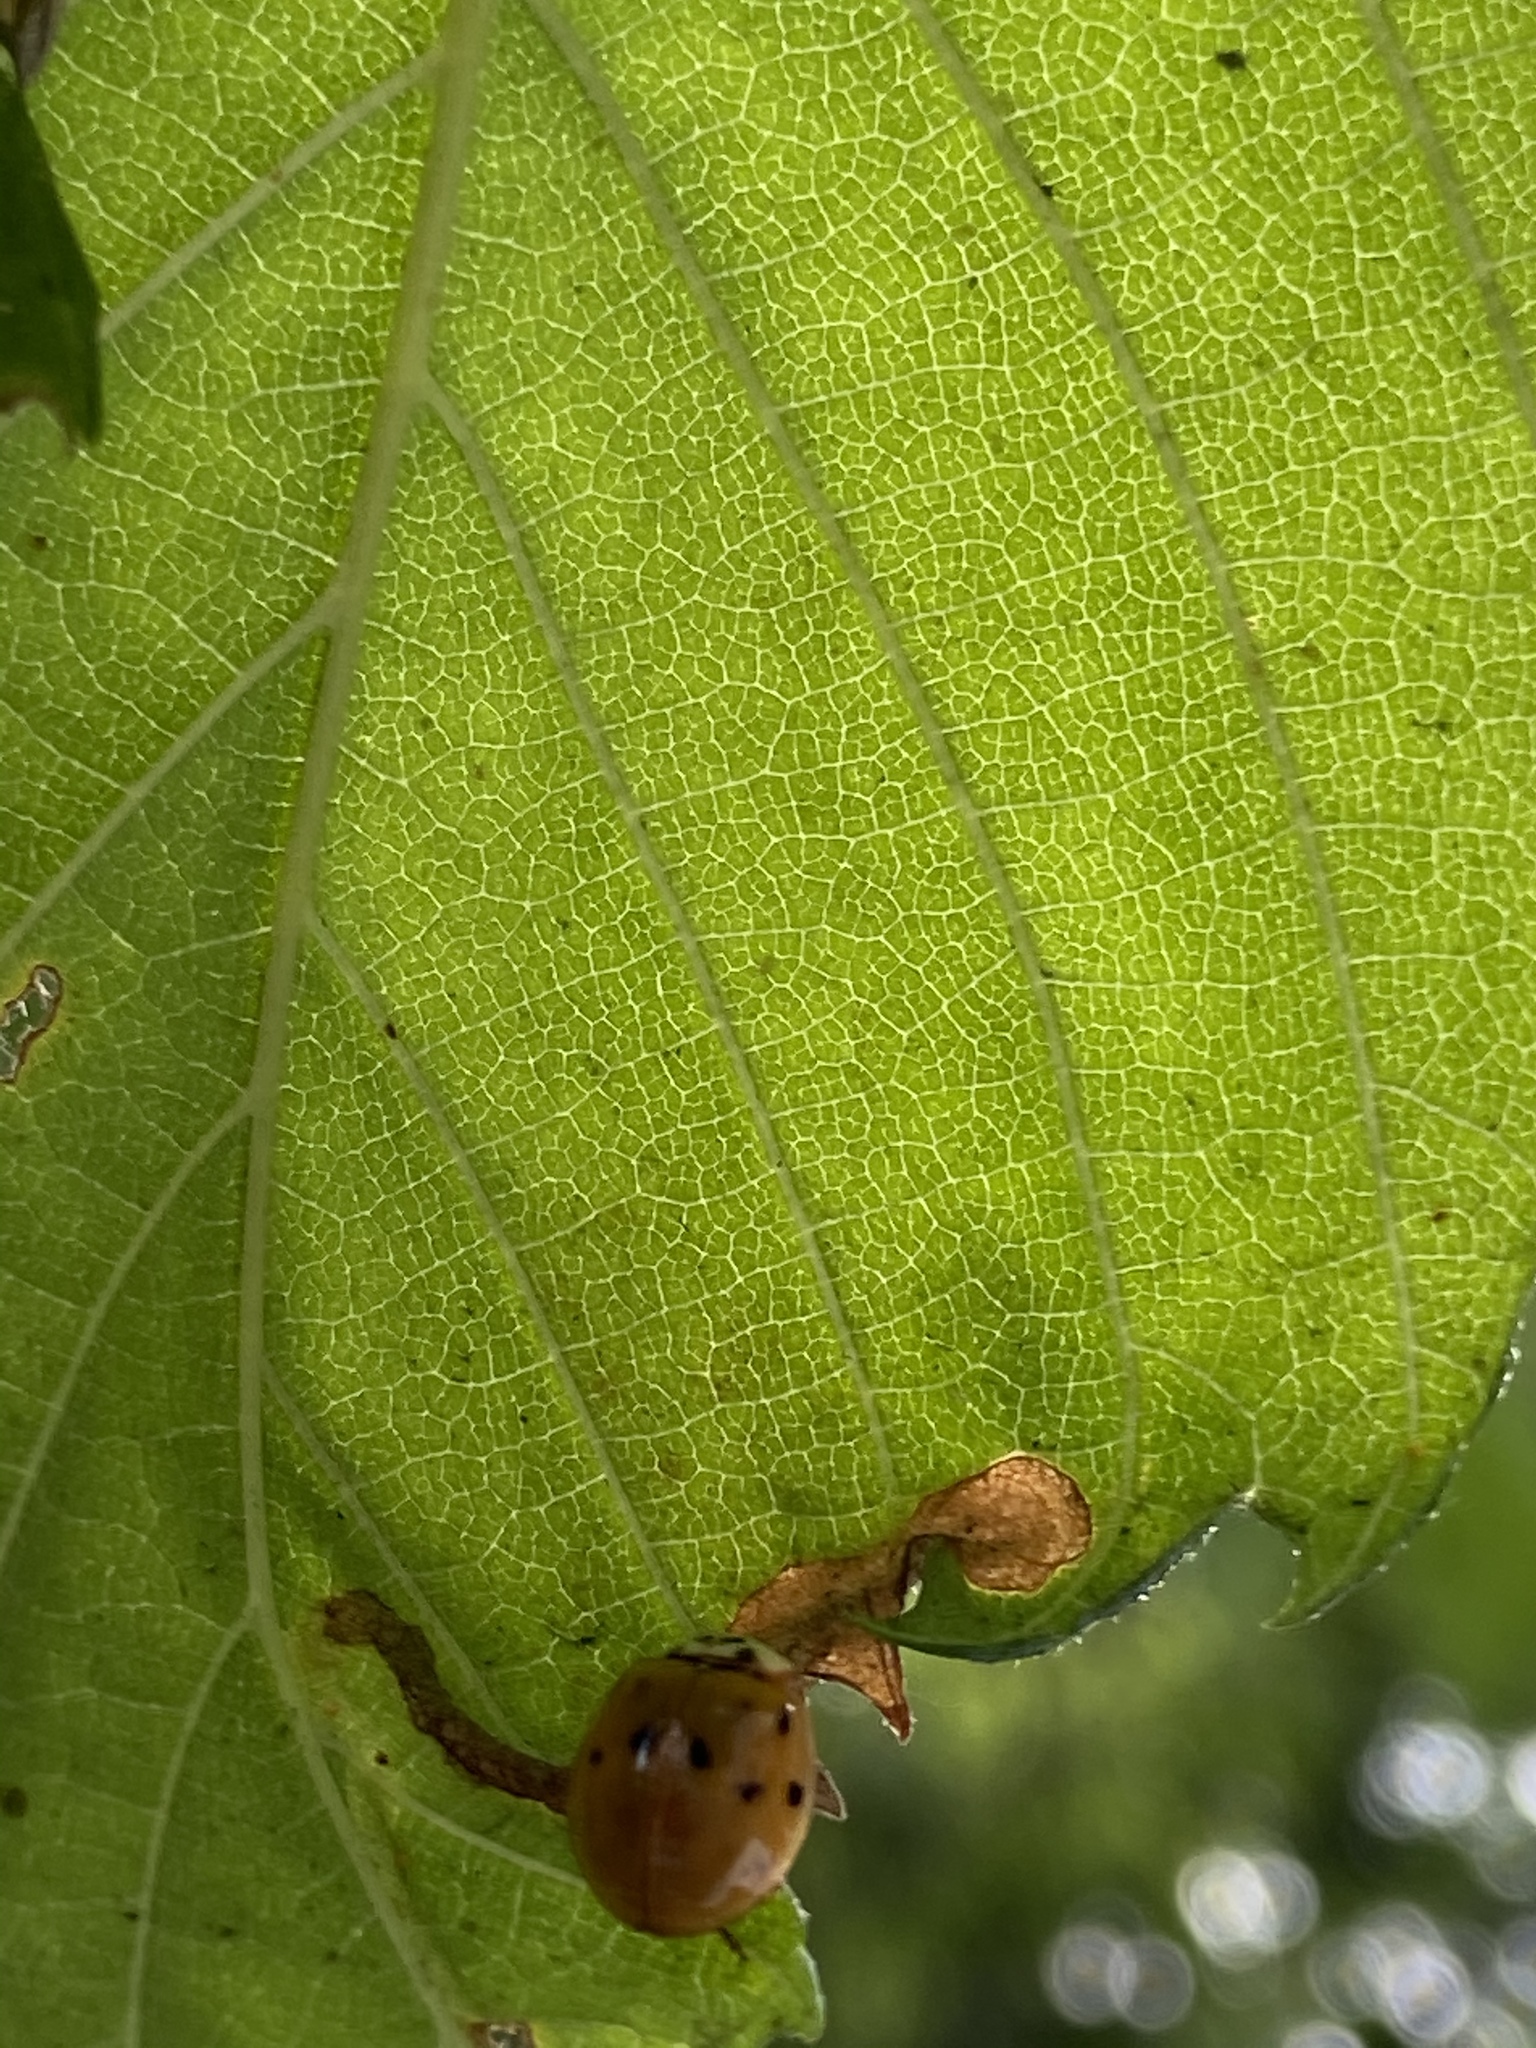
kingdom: Animalia
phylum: Arthropoda
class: Insecta
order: Coleoptera
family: Coccinellidae
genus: Harmonia
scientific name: Harmonia axyridis
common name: Harlequin ladybird
